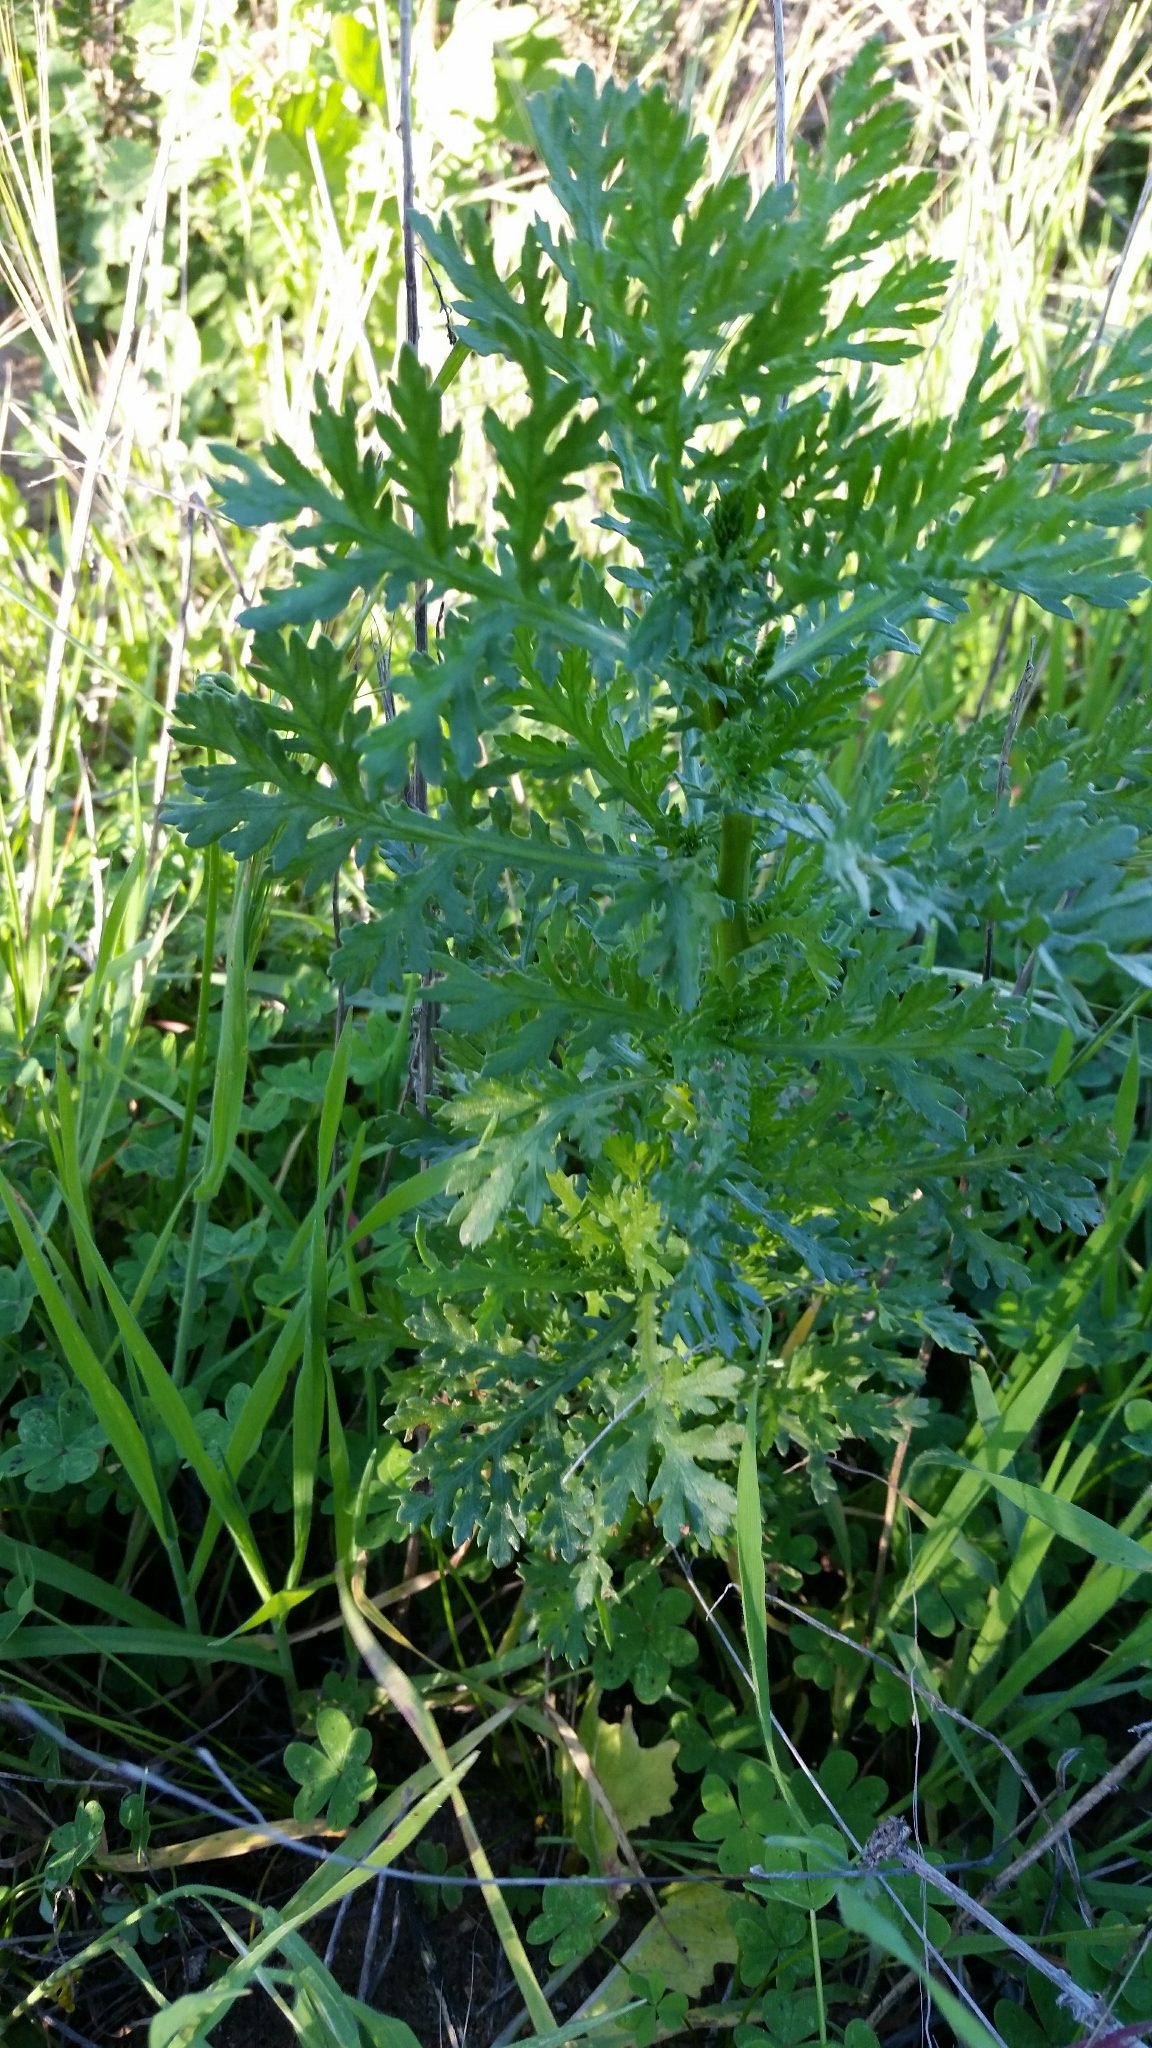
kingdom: Plantae
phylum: Tracheophyta
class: Magnoliopsida
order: Asterales
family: Asteraceae
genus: Glebionis
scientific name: Glebionis coronaria
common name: Crowndaisy
